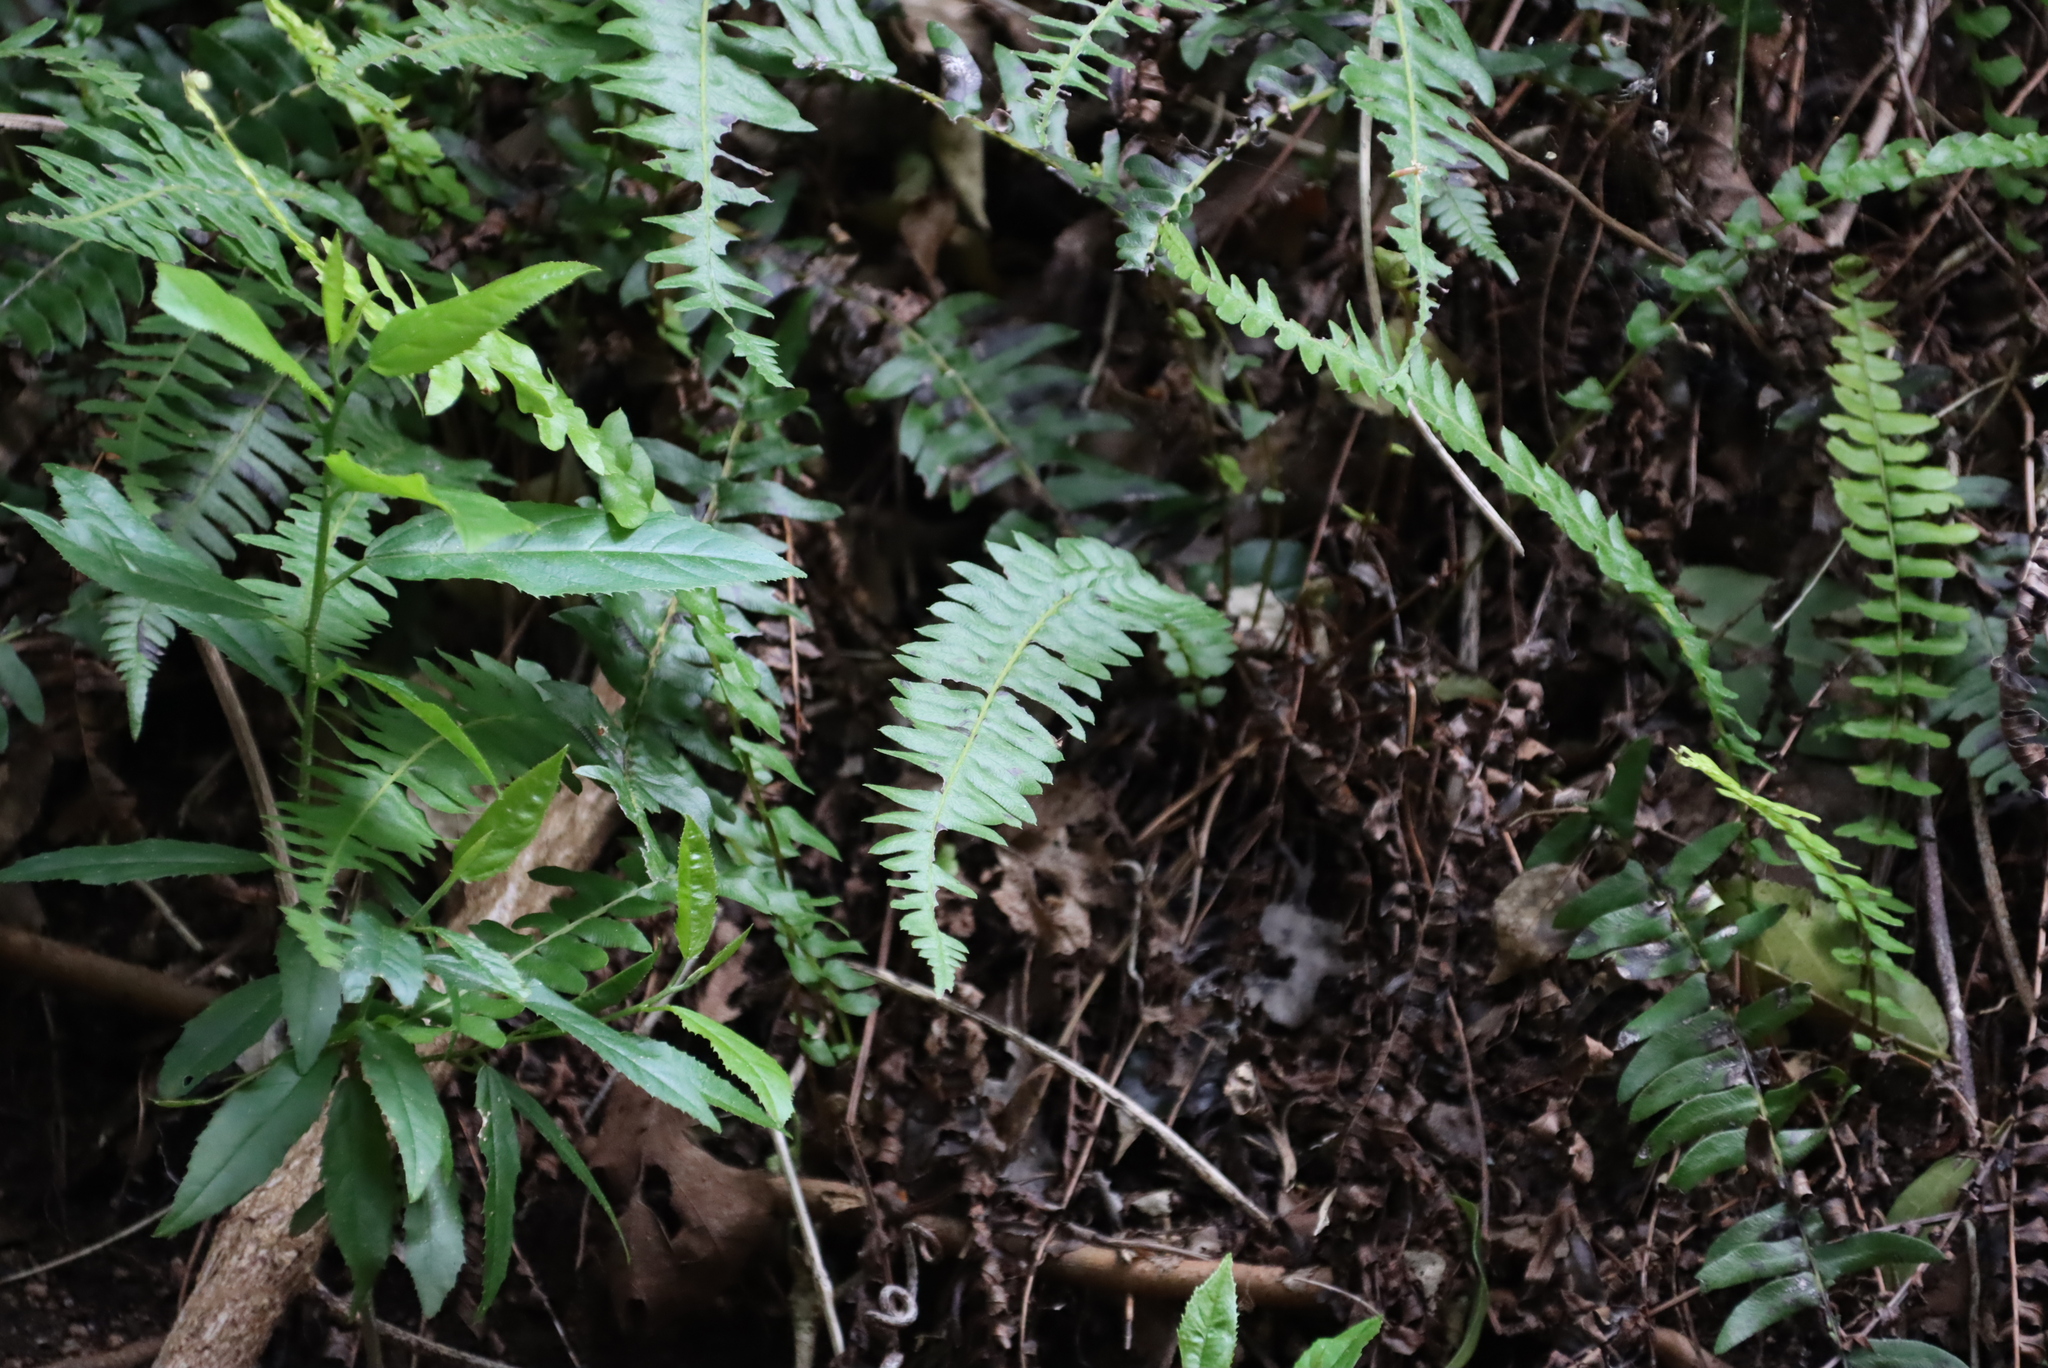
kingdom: Plantae
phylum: Tracheophyta
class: Polypodiopsida
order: Polypodiales
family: Nephrolepidaceae
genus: Nephrolepis
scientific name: Nephrolepis cordifolia
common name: Narrow swordfern
